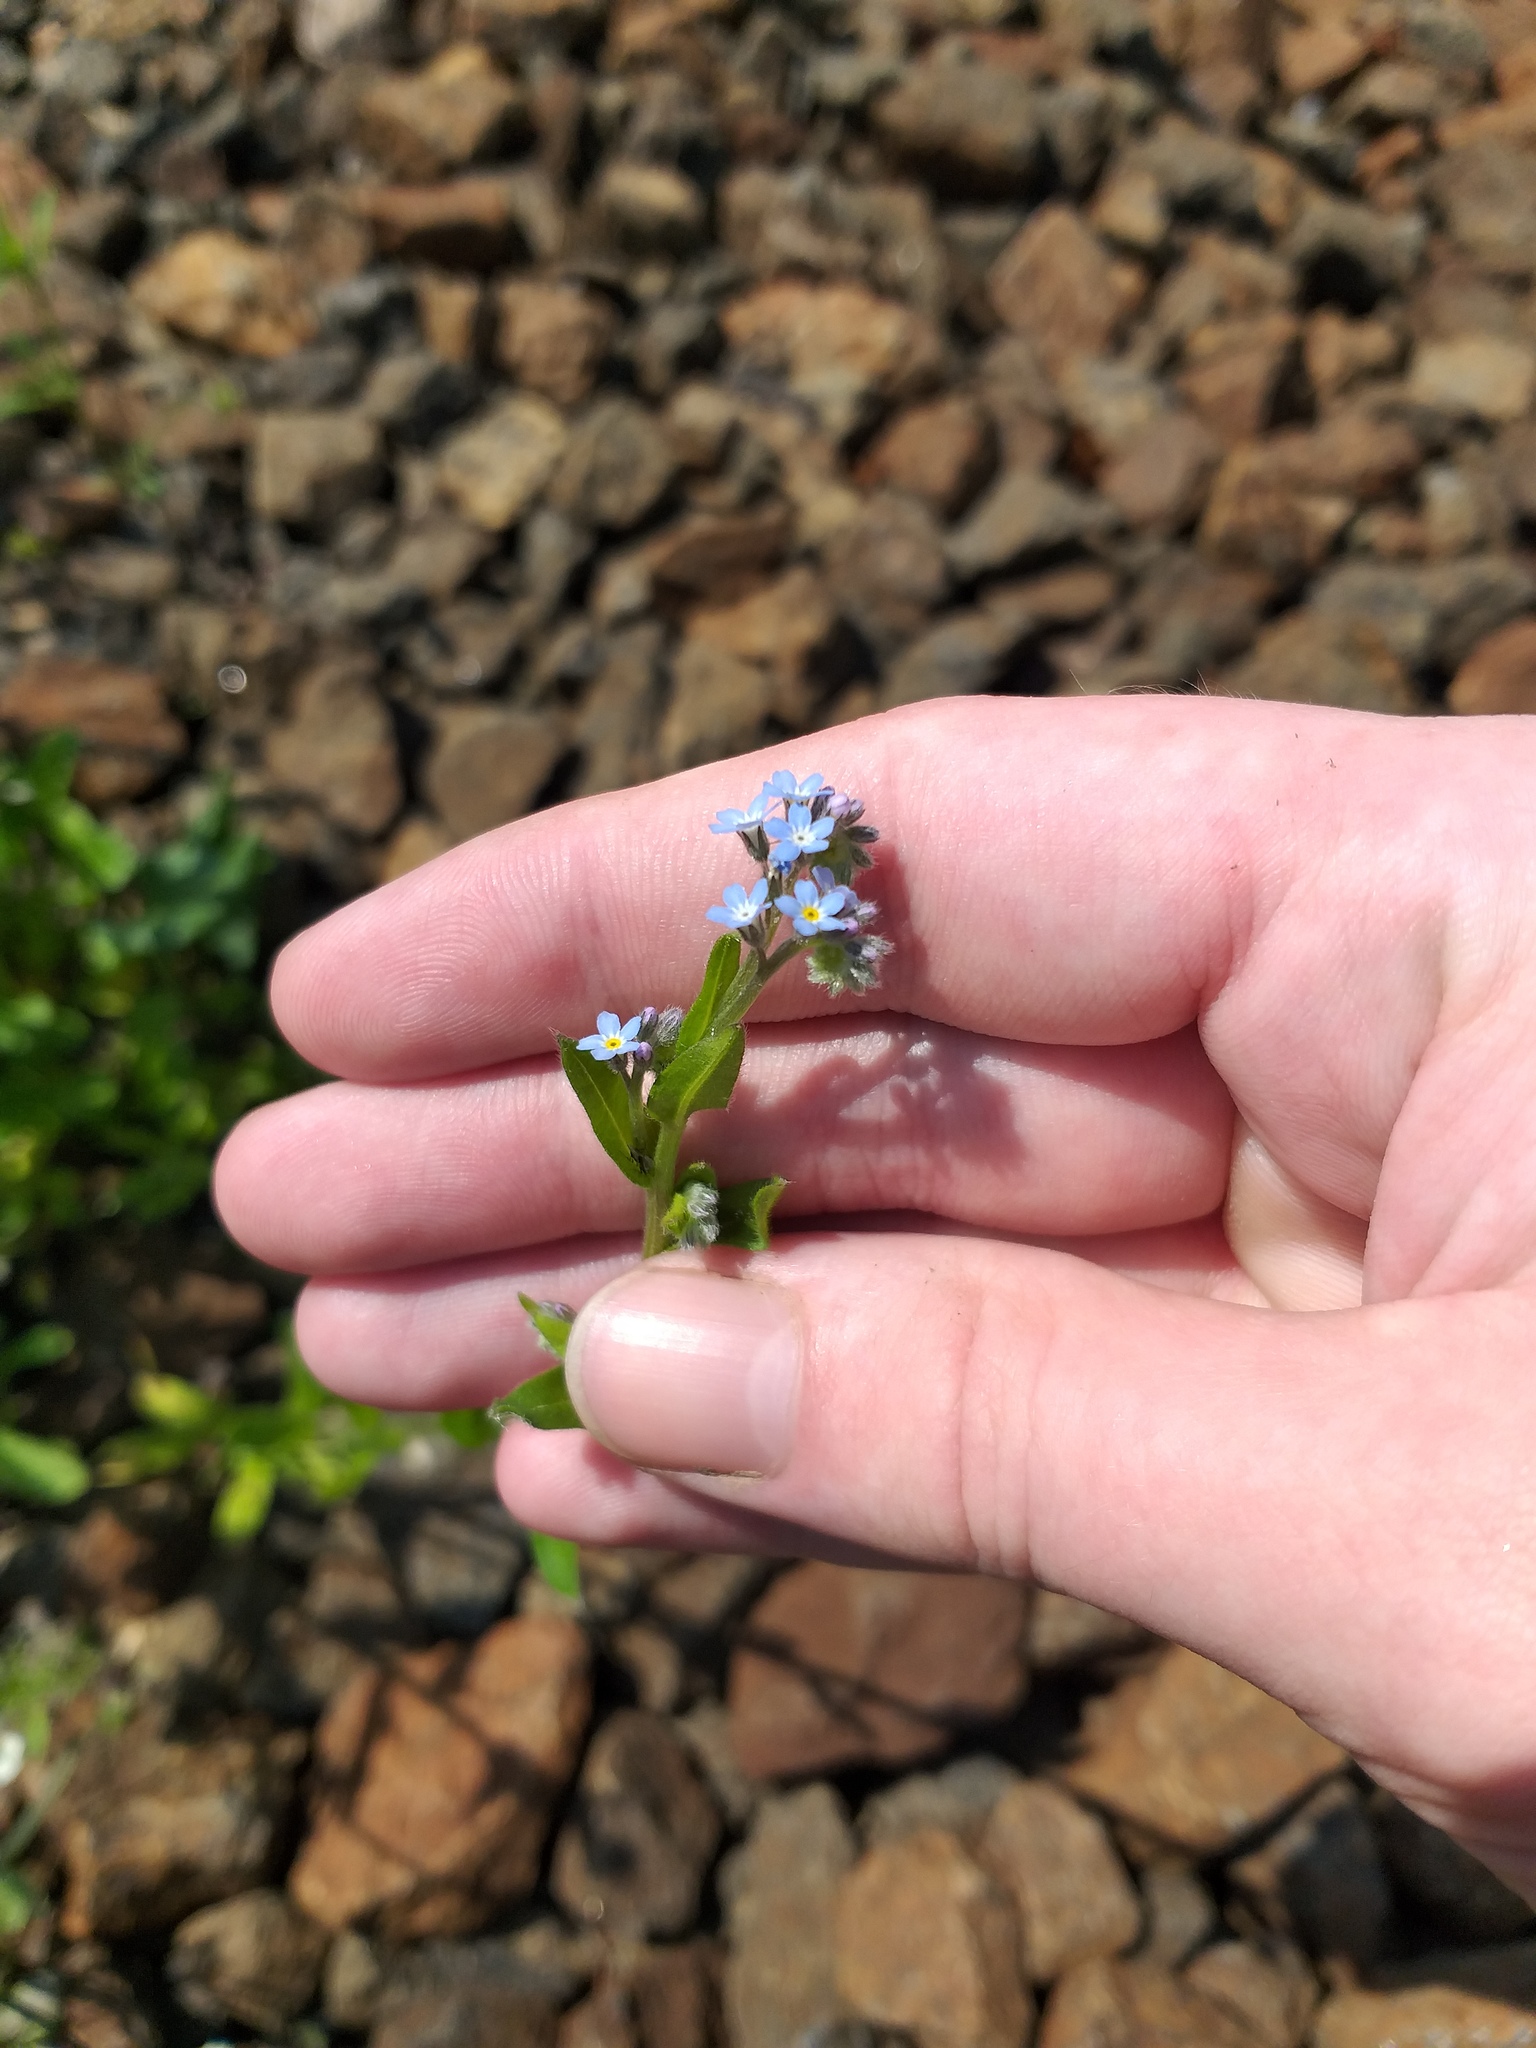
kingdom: Plantae
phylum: Tracheophyta
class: Magnoliopsida
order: Boraginales
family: Boraginaceae
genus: Myosotis
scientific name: Myosotis arvensis
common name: Field forget-me-not
